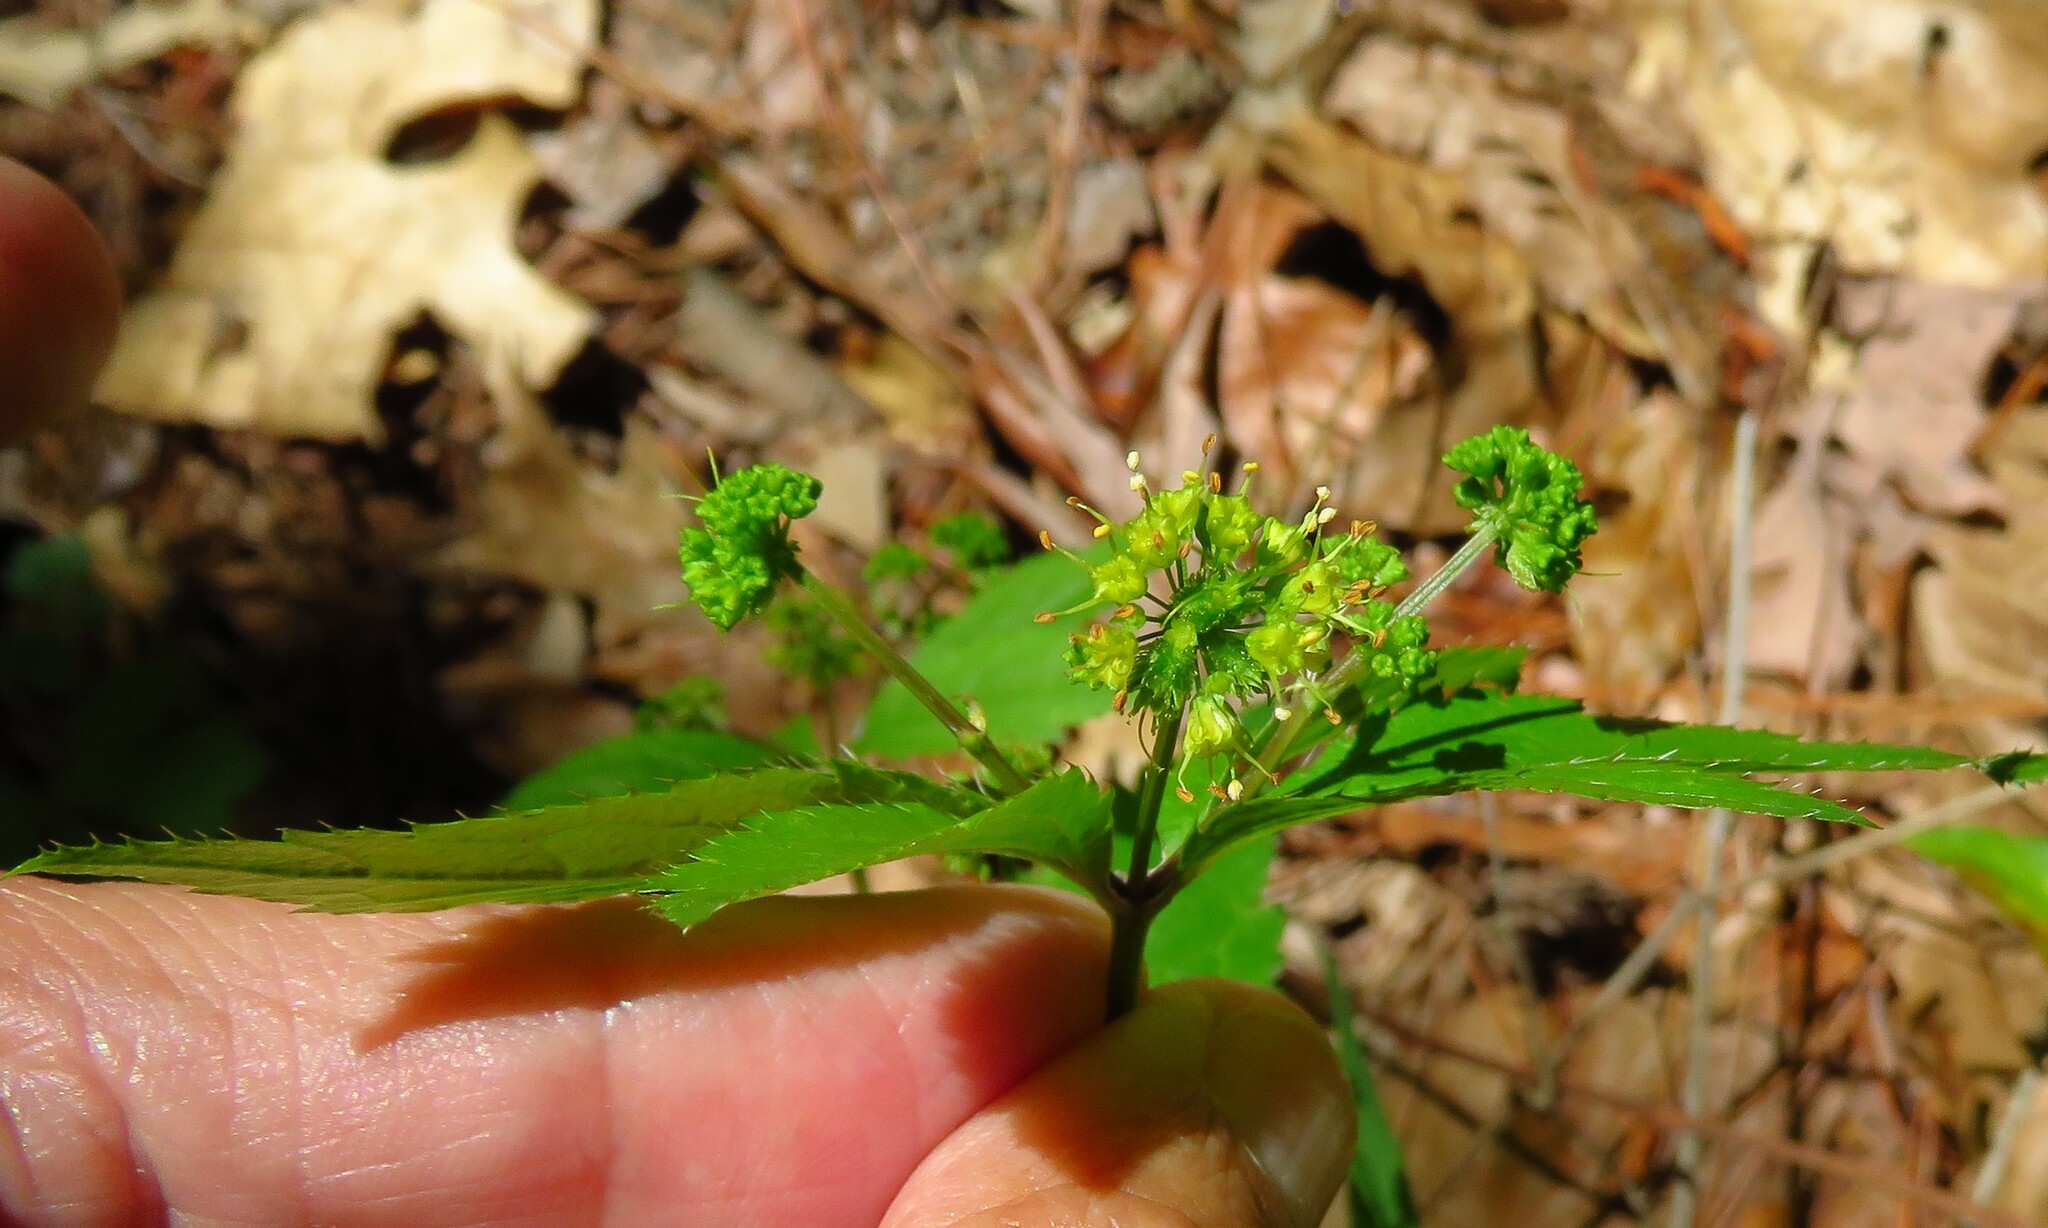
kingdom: Plantae
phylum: Tracheophyta
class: Magnoliopsida
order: Apiales
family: Apiaceae
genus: Sanicula
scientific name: Sanicula odorata
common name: Cluster sanicle
